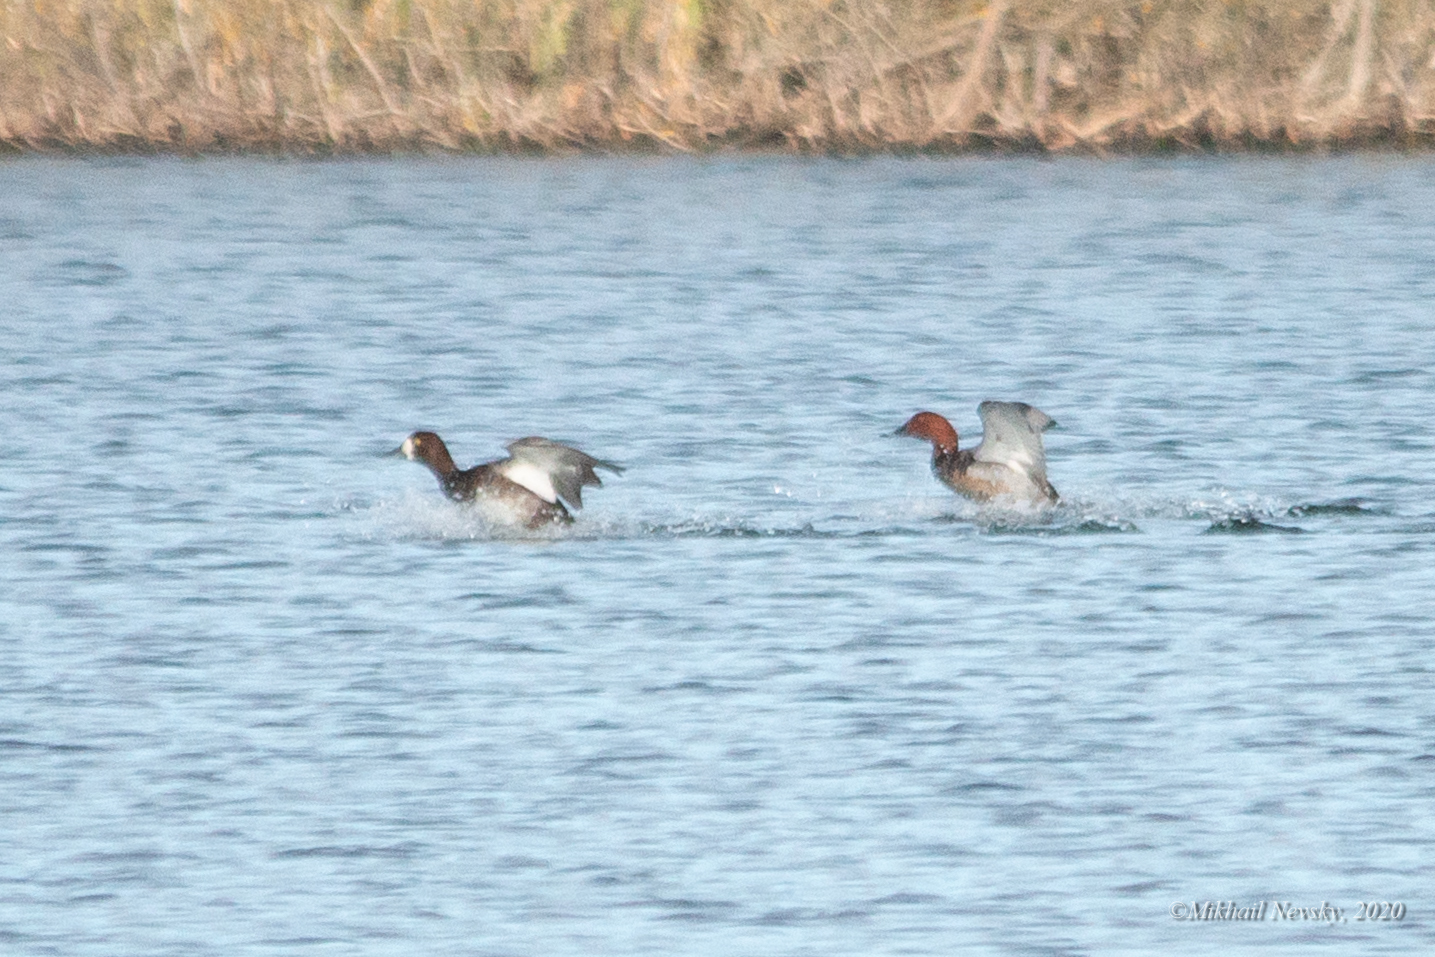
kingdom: Animalia
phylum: Chordata
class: Aves
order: Anseriformes
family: Anatidae
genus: Aythya
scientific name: Aythya marila
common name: Greater scaup
